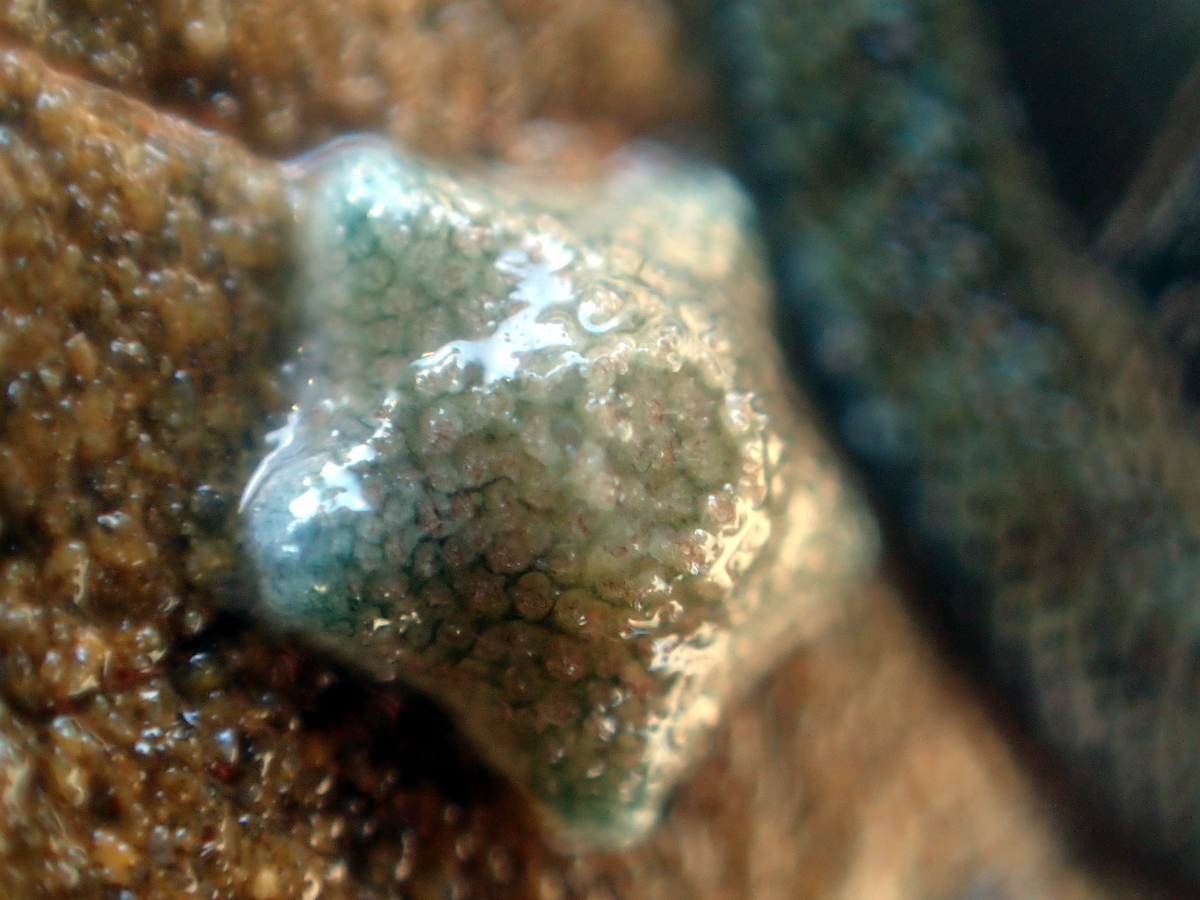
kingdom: Animalia
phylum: Echinodermata
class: Asteroidea
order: Valvatida
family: Asterinidae
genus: Patiriella
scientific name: Patiriella regularis
